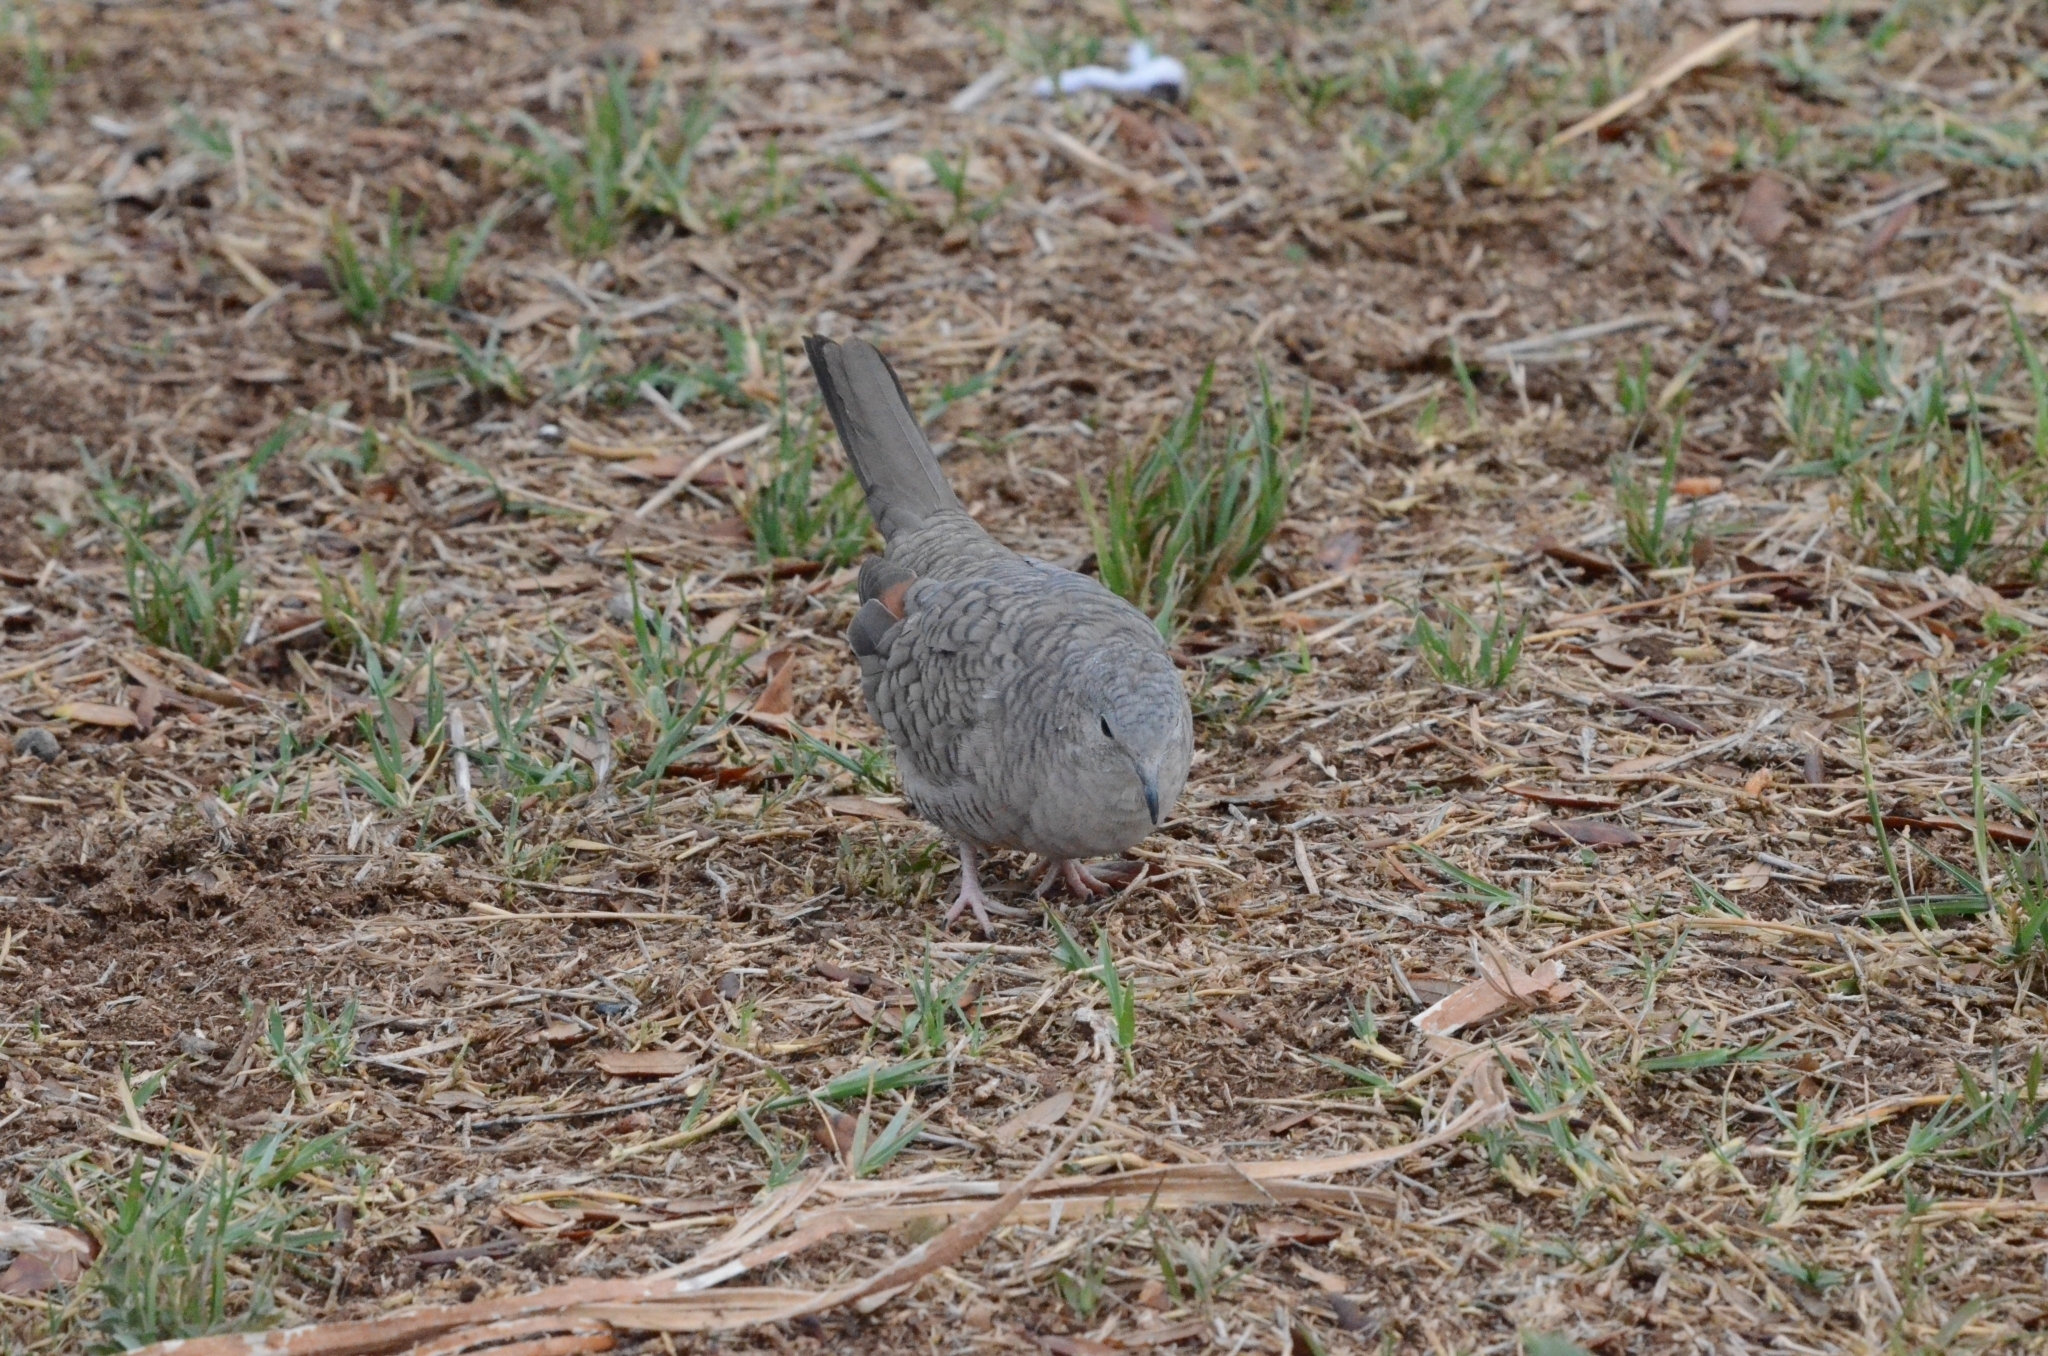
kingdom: Animalia
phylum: Chordata
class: Aves
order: Columbiformes
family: Columbidae
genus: Columbina
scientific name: Columbina inca
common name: Inca dove
